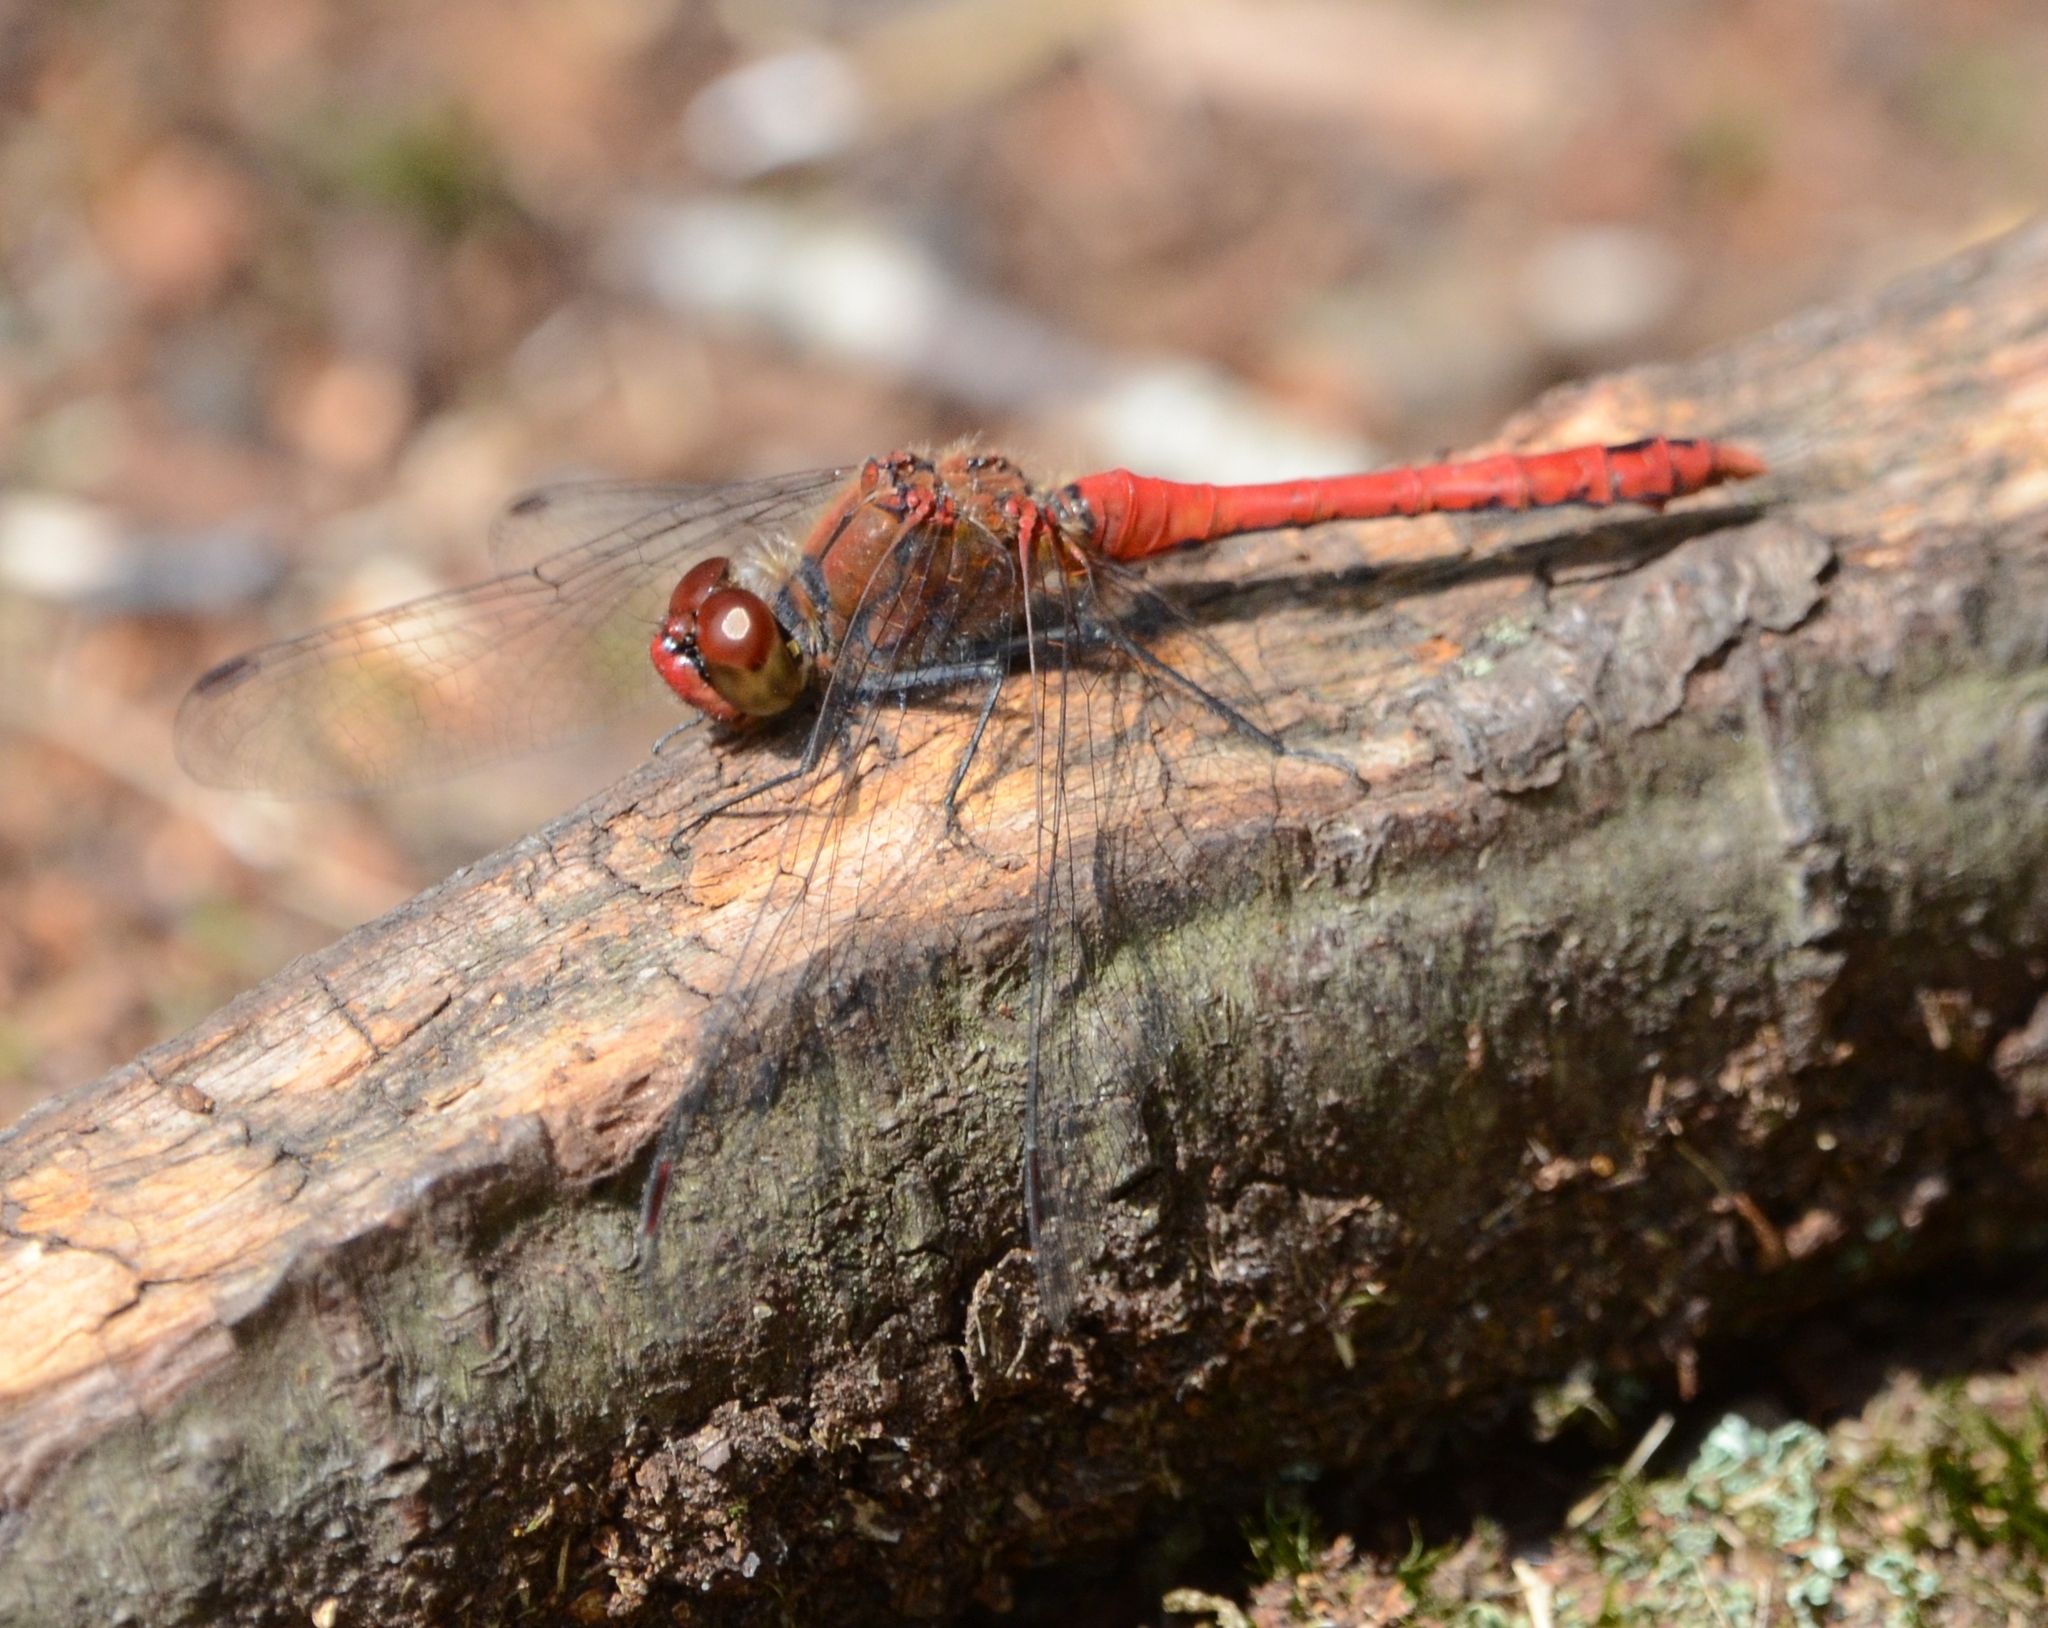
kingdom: Animalia
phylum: Arthropoda
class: Insecta
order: Odonata
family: Libellulidae
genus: Sympetrum
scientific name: Sympetrum sanguineum
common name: Ruddy darter
